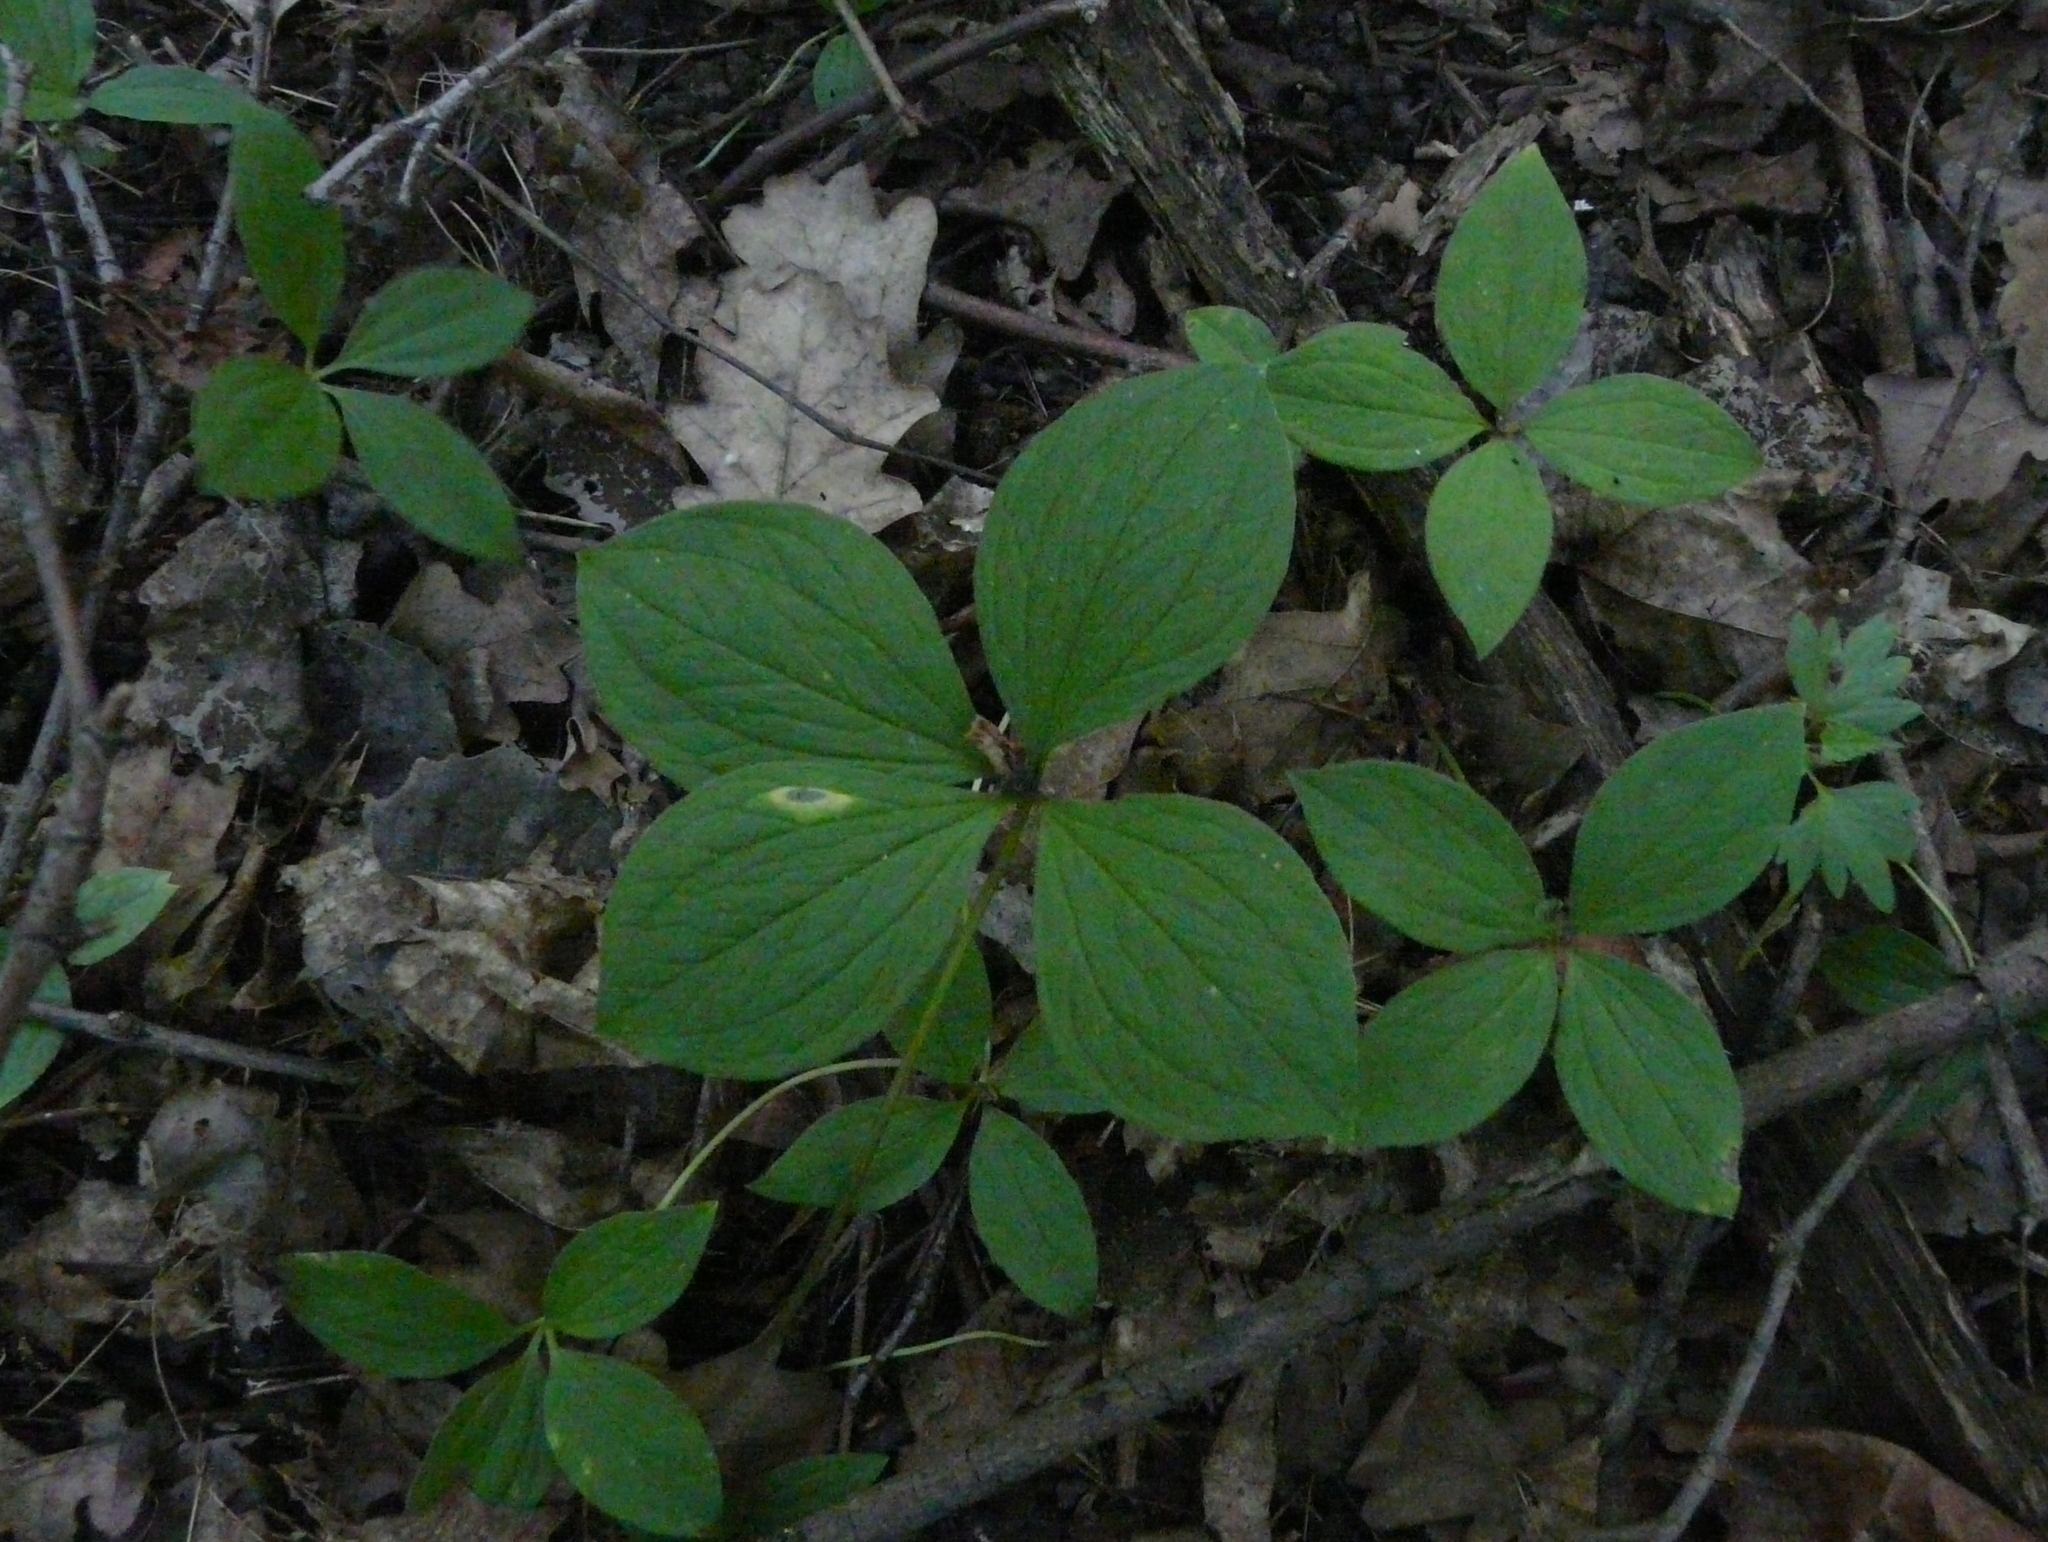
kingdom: Plantae
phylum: Tracheophyta
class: Liliopsida
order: Liliales
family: Melanthiaceae
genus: Paris
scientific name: Paris quadrifolia
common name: Herb-paris
